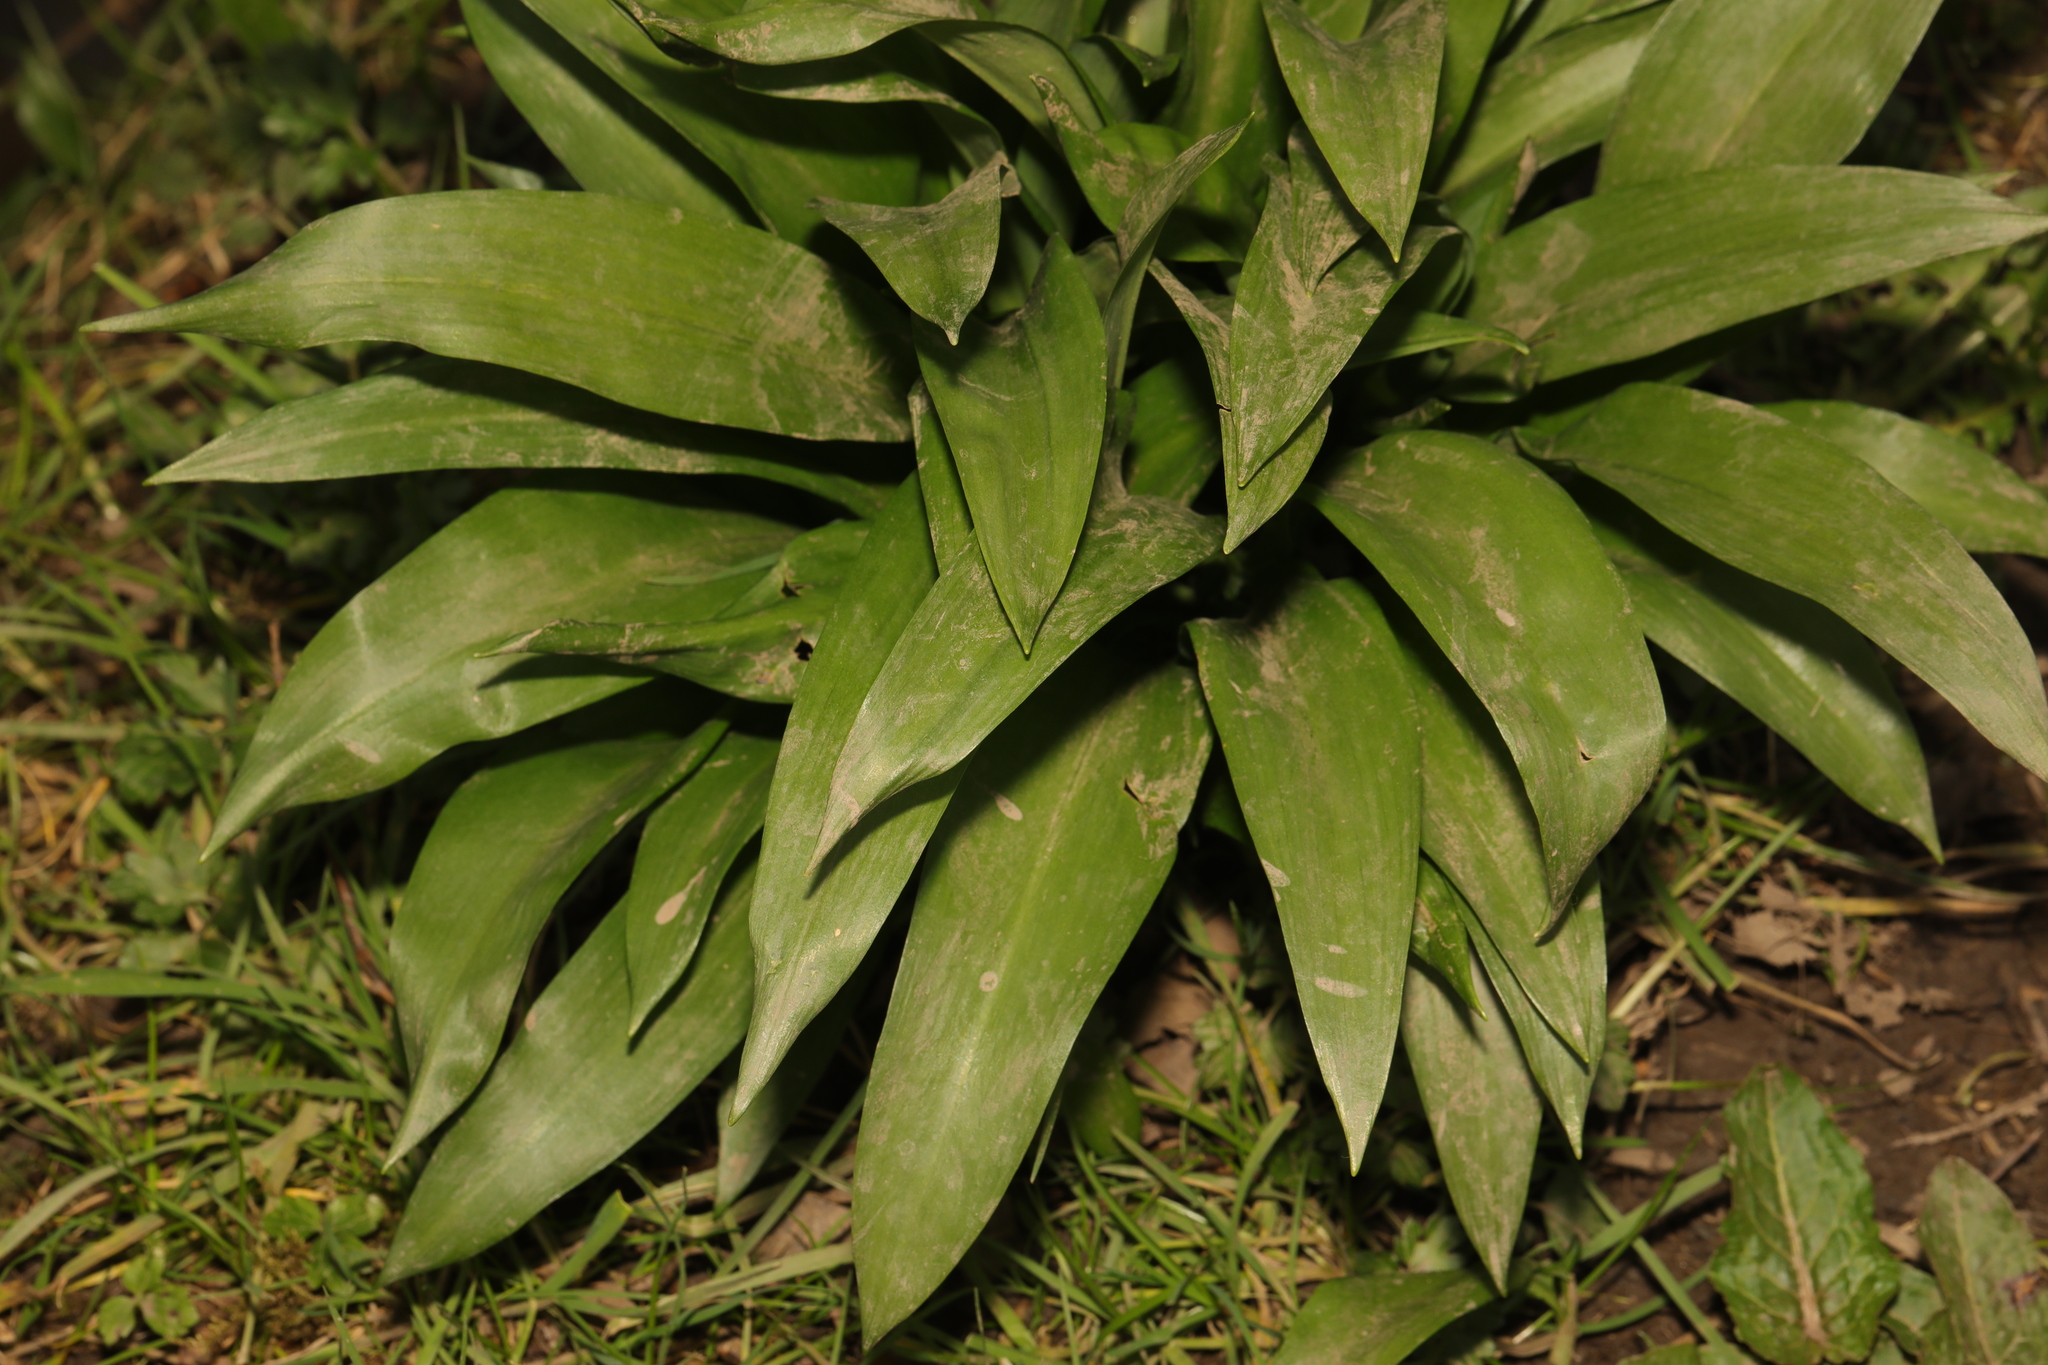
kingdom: Plantae
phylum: Tracheophyta
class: Liliopsida
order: Asparagales
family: Amaryllidaceae
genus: Allium
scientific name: Allium ursinum
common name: Ramsons
